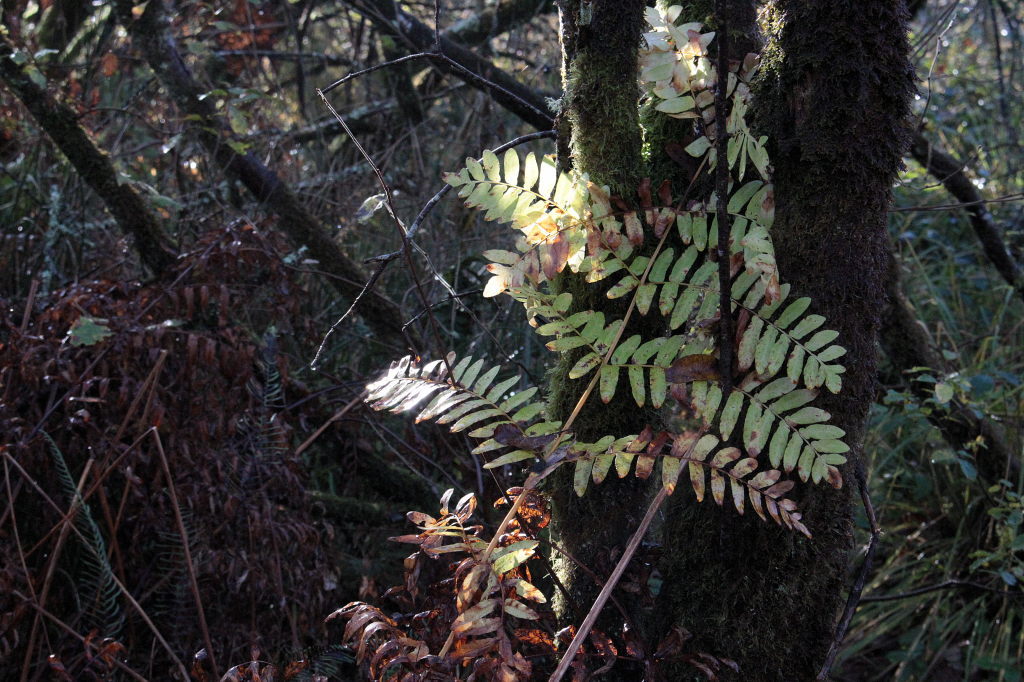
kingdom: Plantae
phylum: Tracheophyta
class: Polypodiopsida
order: Osmundales
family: Osmundaceae
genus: Osmunda
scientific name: Osmunda regalis
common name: Royal fern
